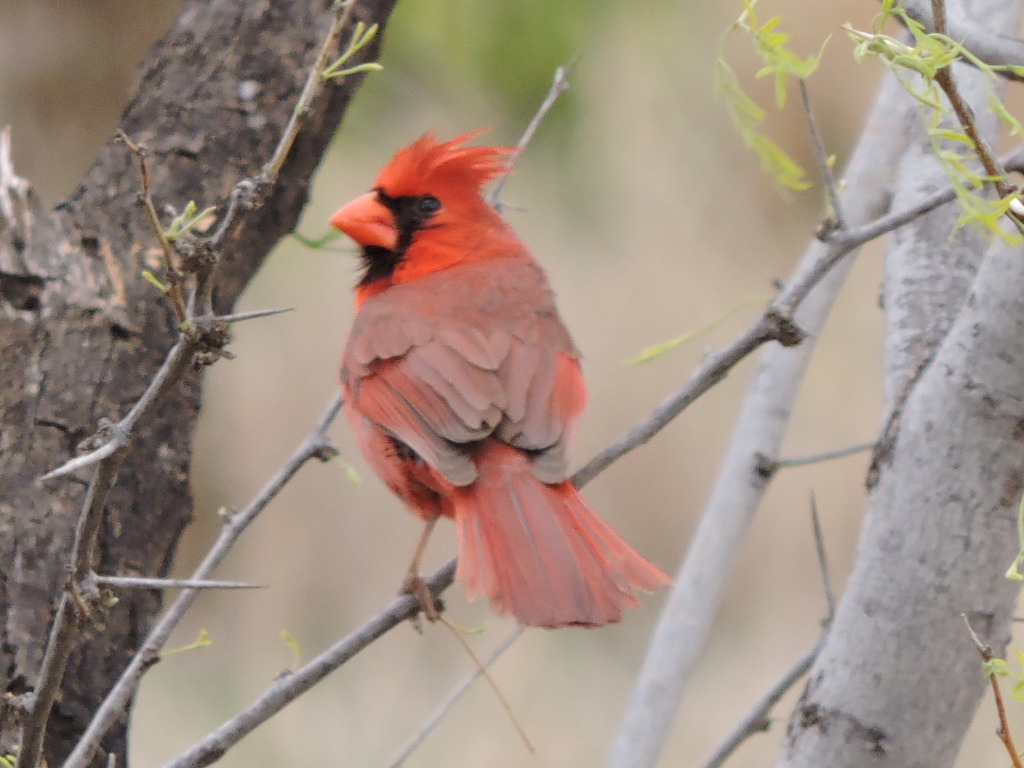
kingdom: Animalia
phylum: Chordata
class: Aves
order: Passeriformes
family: Cardinalidae
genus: Cardinalis
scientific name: Cardinalis cardinalis
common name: Northern cardinal
